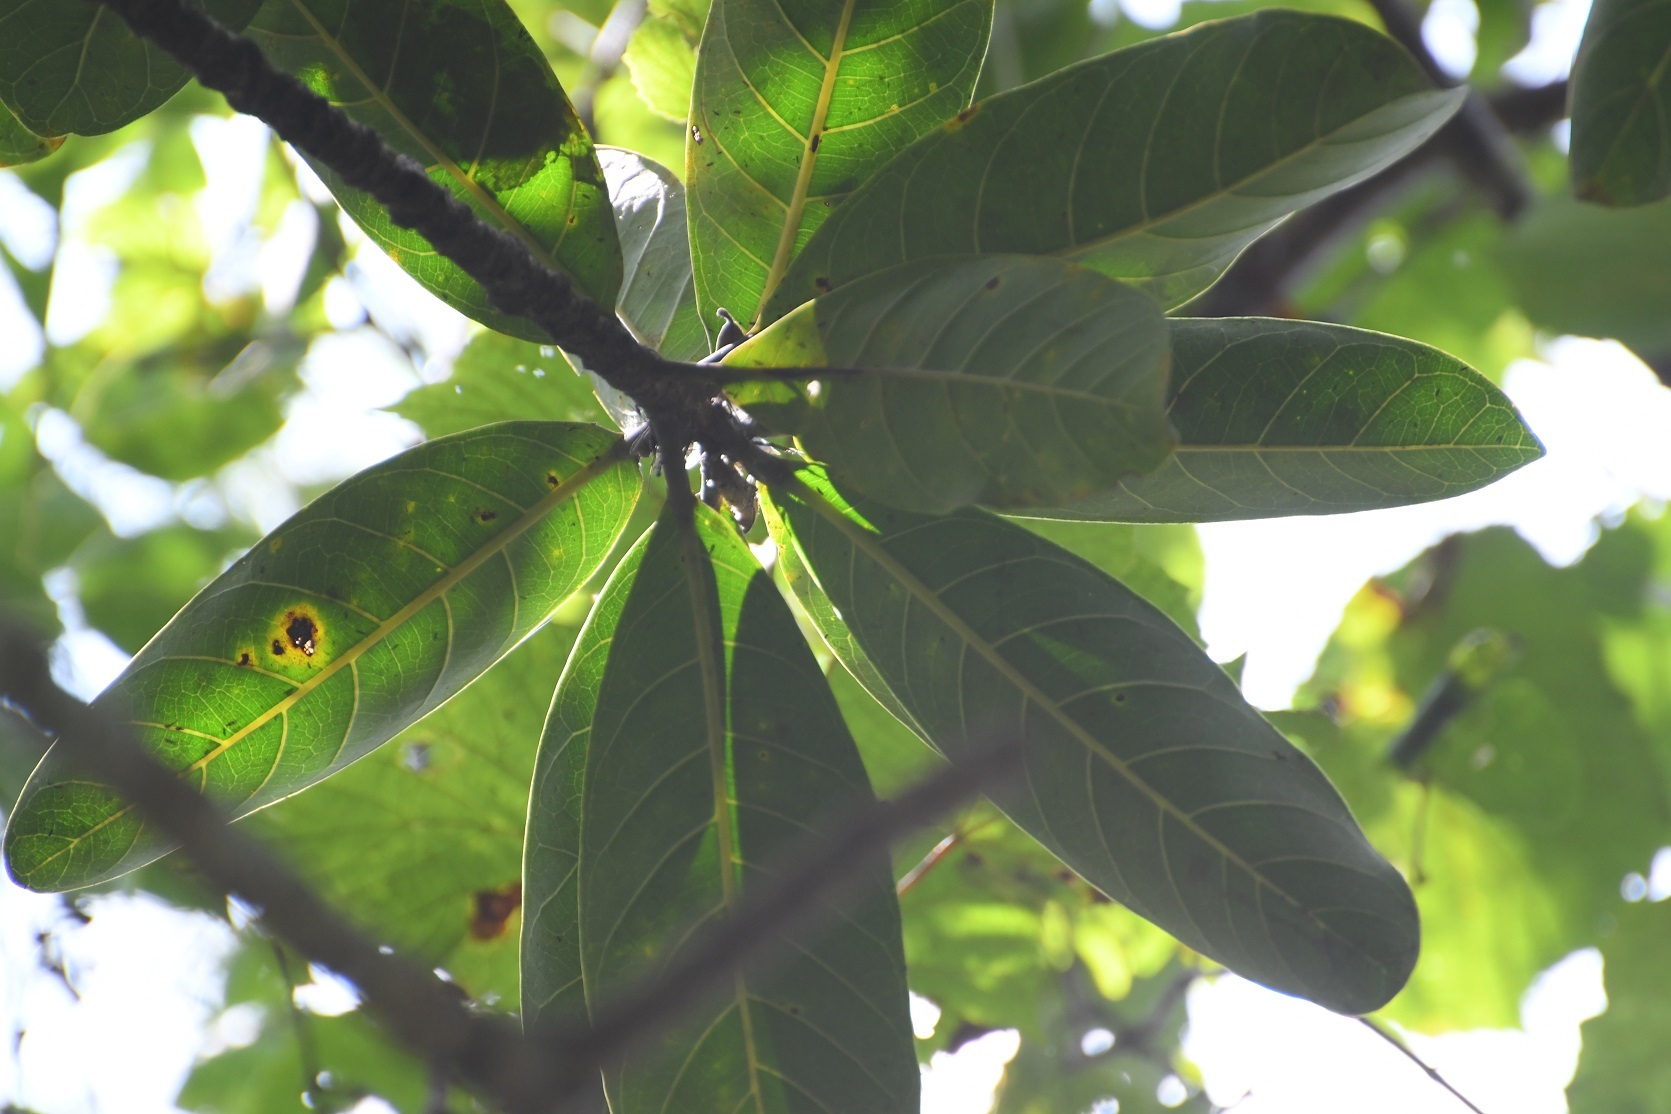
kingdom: Plantae
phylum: Tracheophyta
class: Magnoliopsida
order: Rosales
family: Moraceae
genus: Ficus
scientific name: Ficus obtusifolia
